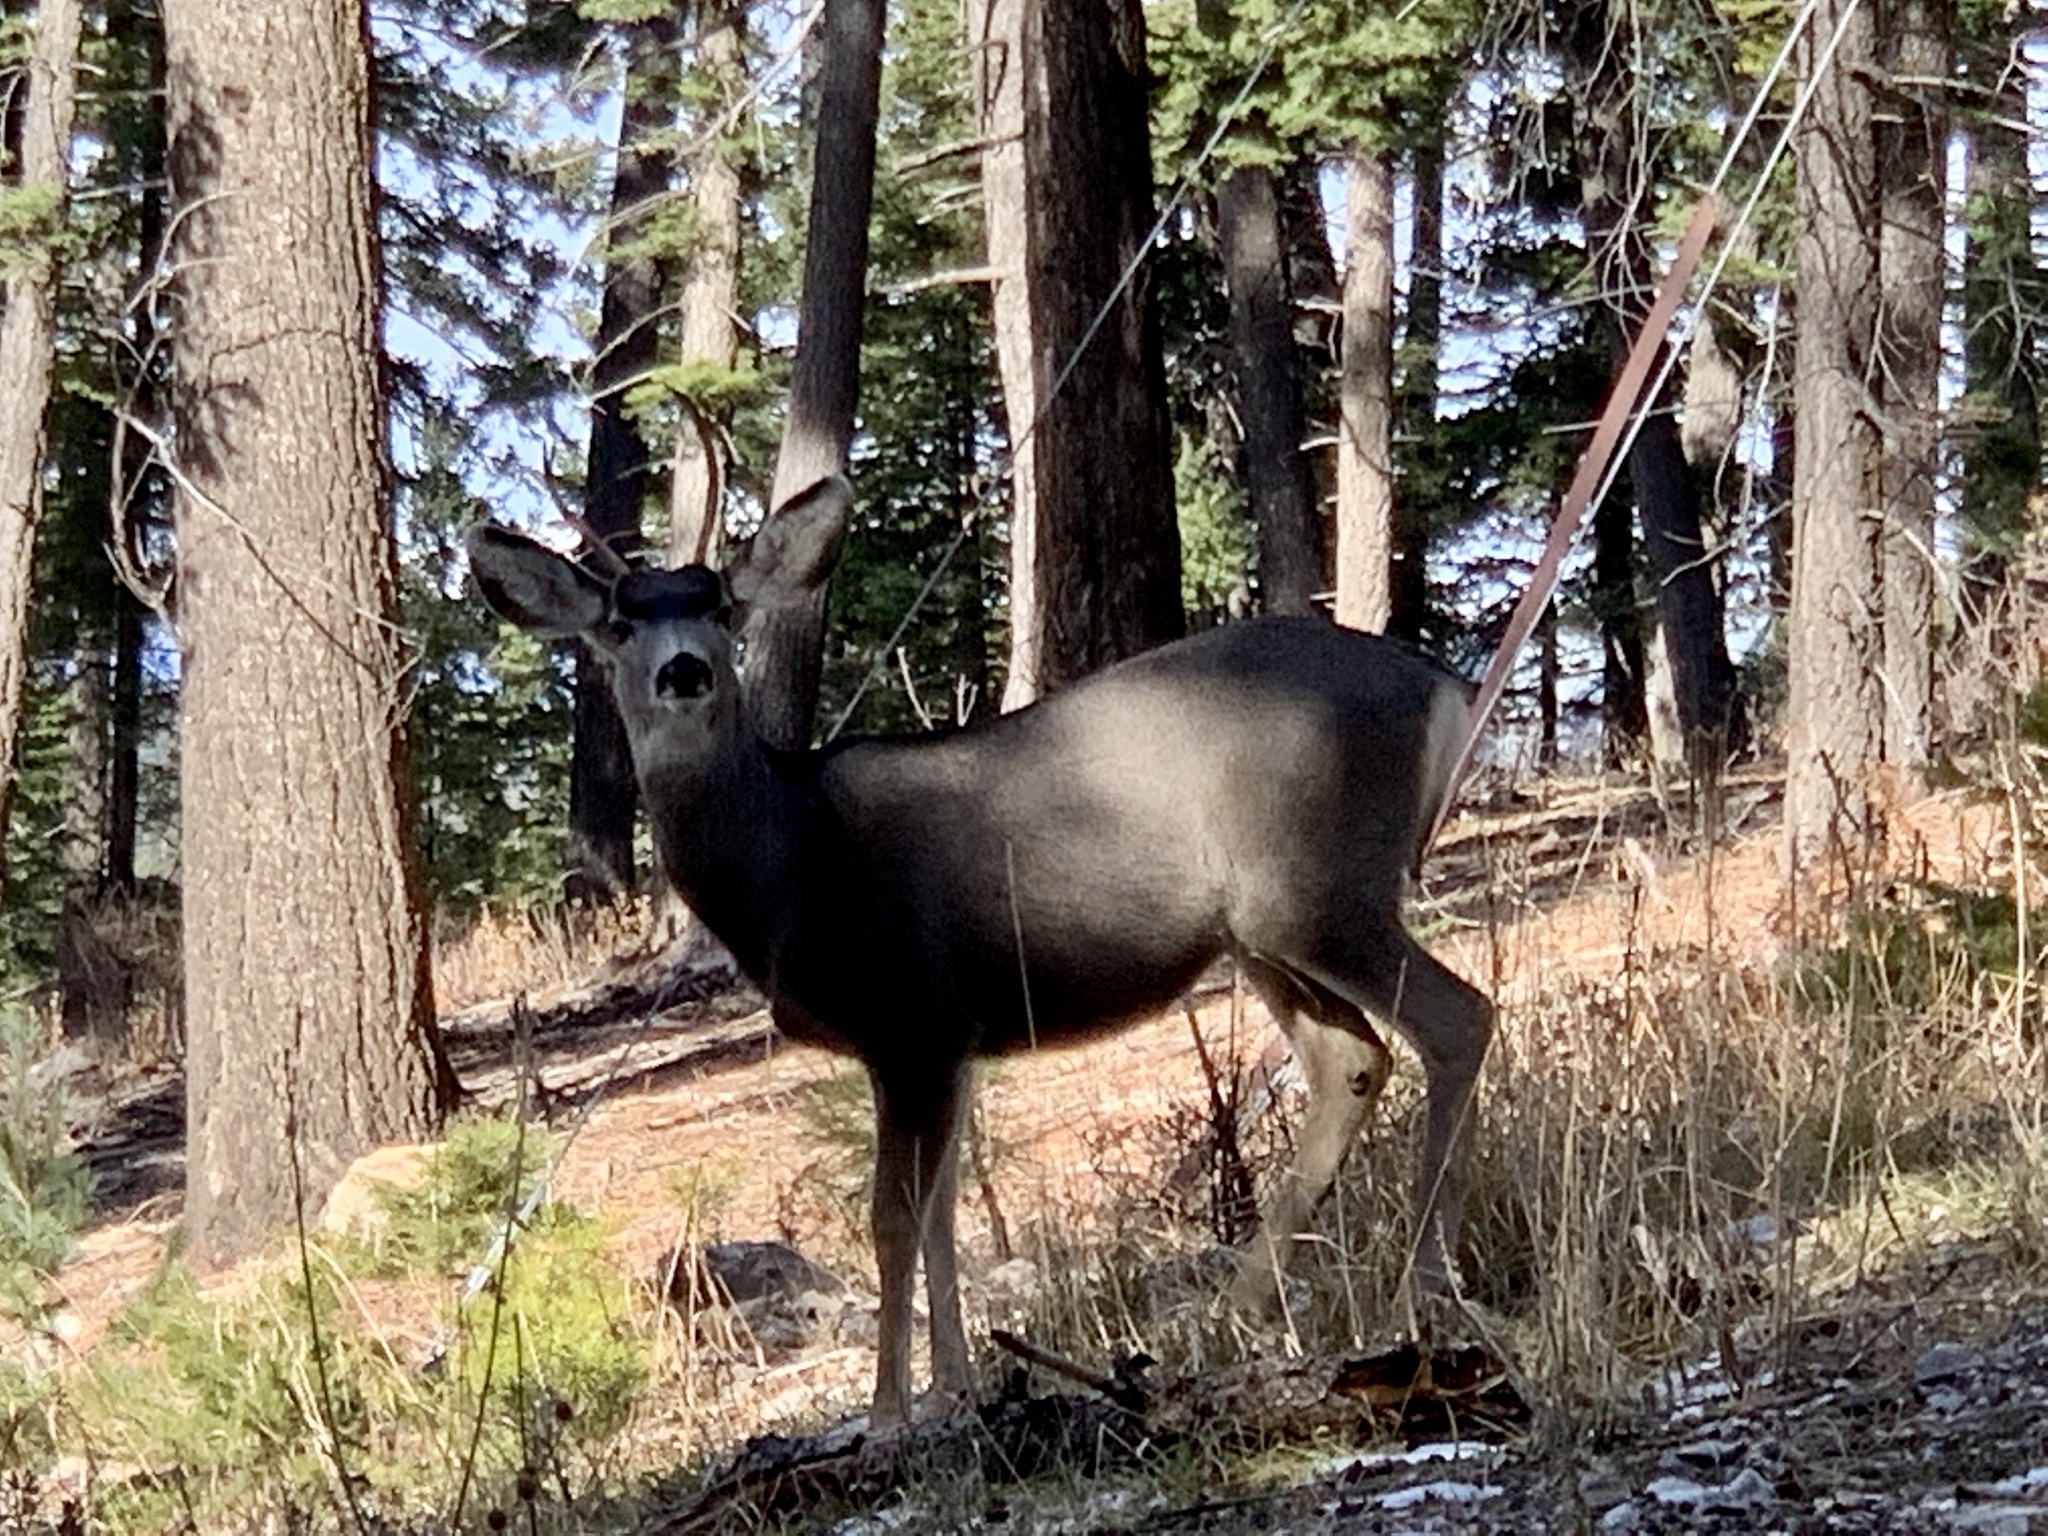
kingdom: Animalia
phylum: Chordata
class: Mammalia
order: Artiodactyla
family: Cervidae
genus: Odocoileus
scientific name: Odocoileus hemionus
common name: Mule deer
